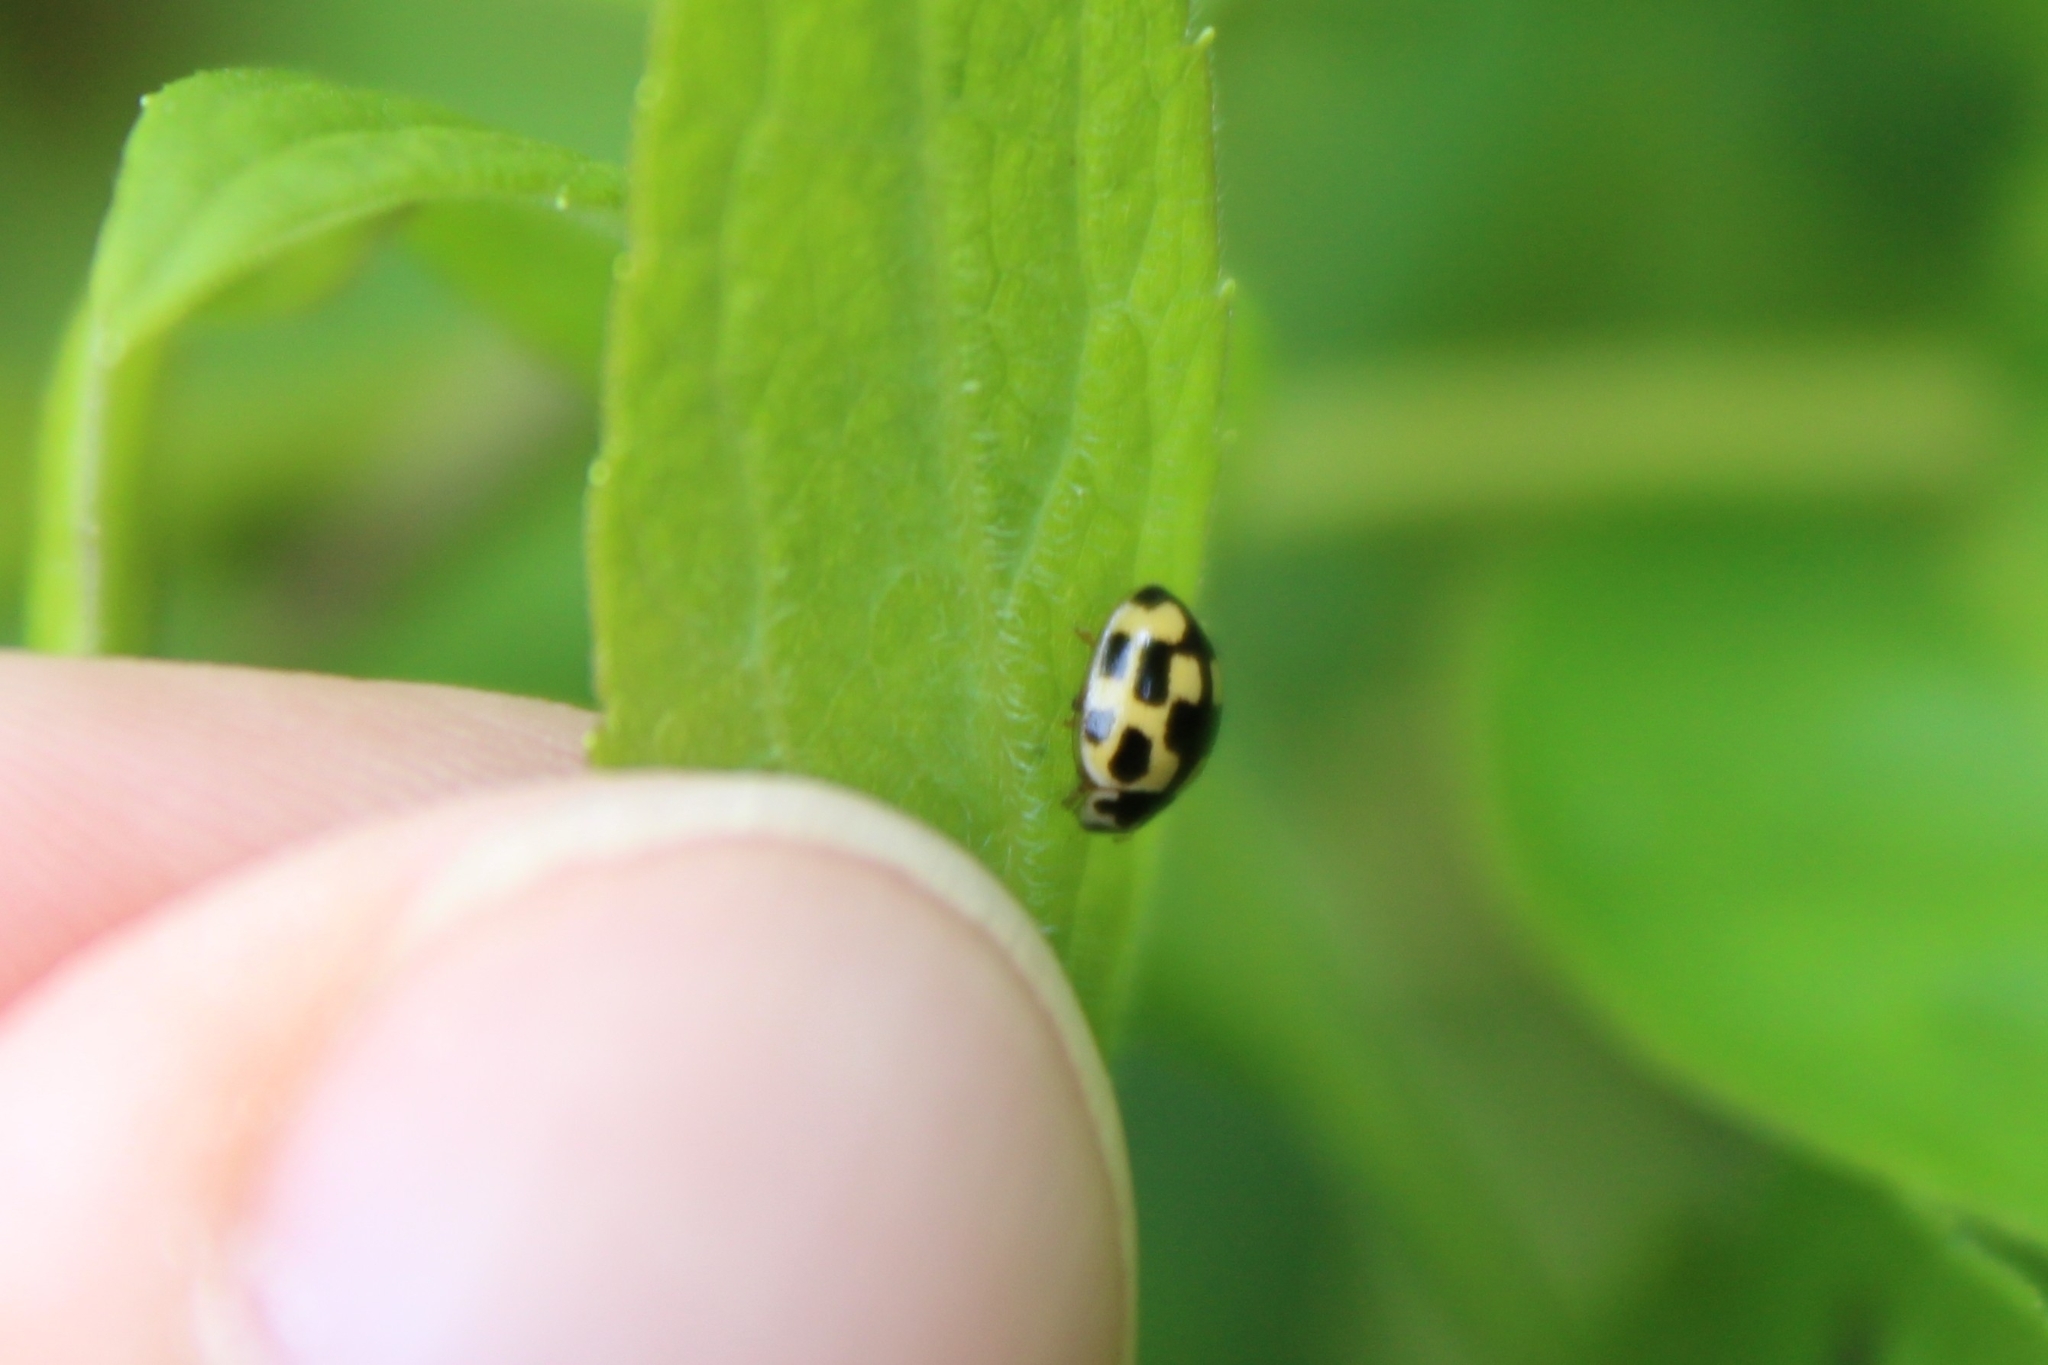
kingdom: Animalia
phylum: Arthropoda
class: Insecta
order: Coleoptera
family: Coccinellidae
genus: Propylaea
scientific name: Propylaea quatuordecimpunctata
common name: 14-spotted ladybird beetle
